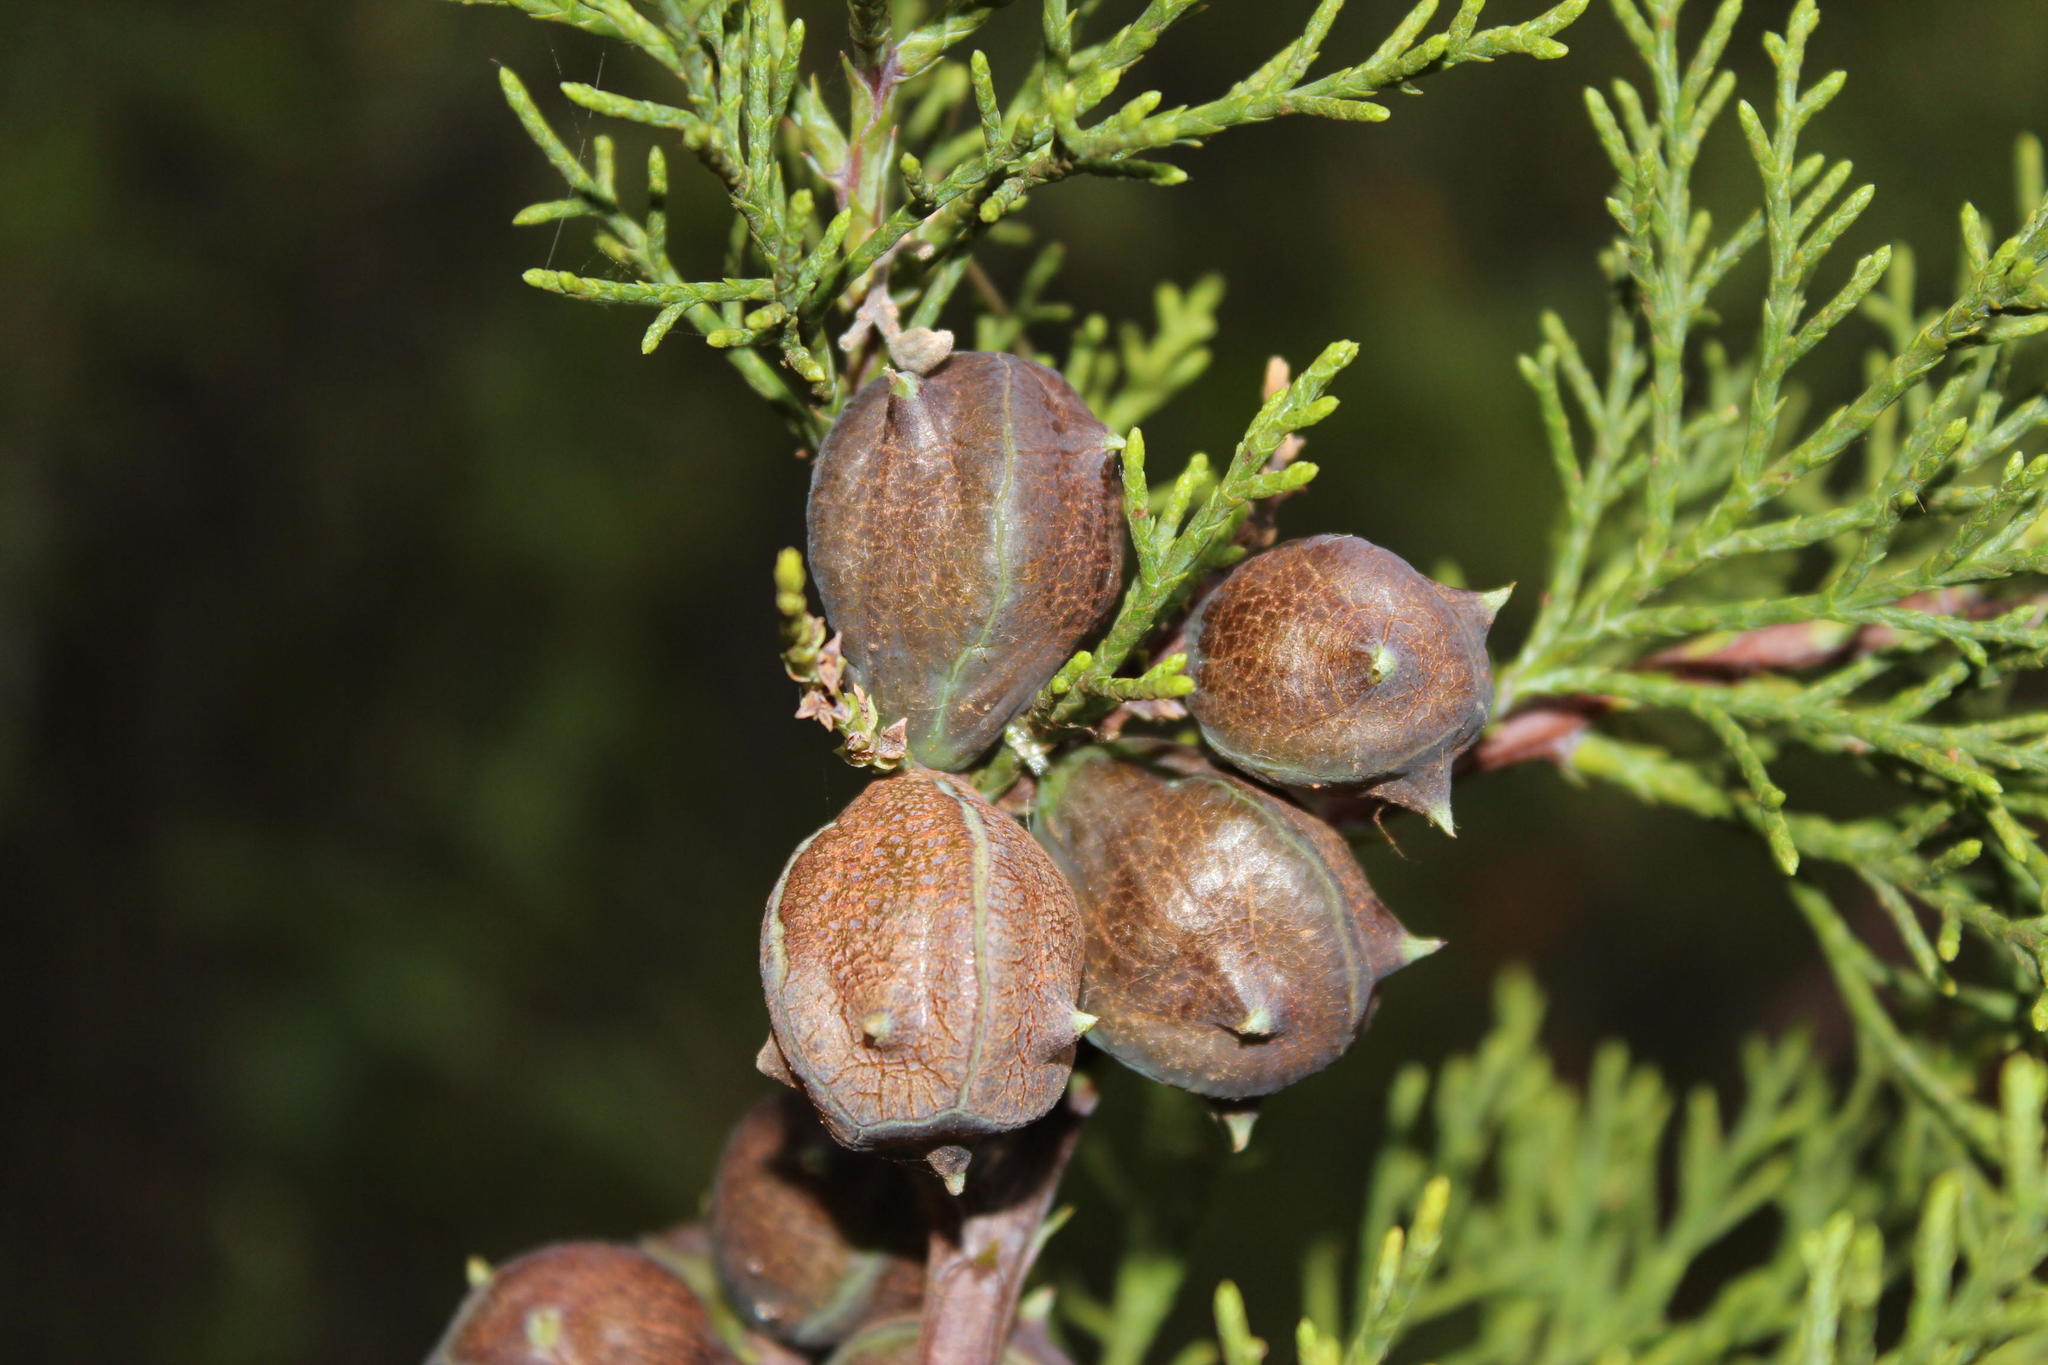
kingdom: Plantae
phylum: Tracheophyta
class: Pinopsida
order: Pinales
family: Cupressaceae
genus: Widdringtonia
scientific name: Widdringtonia nodiflora
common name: Cape cypress
